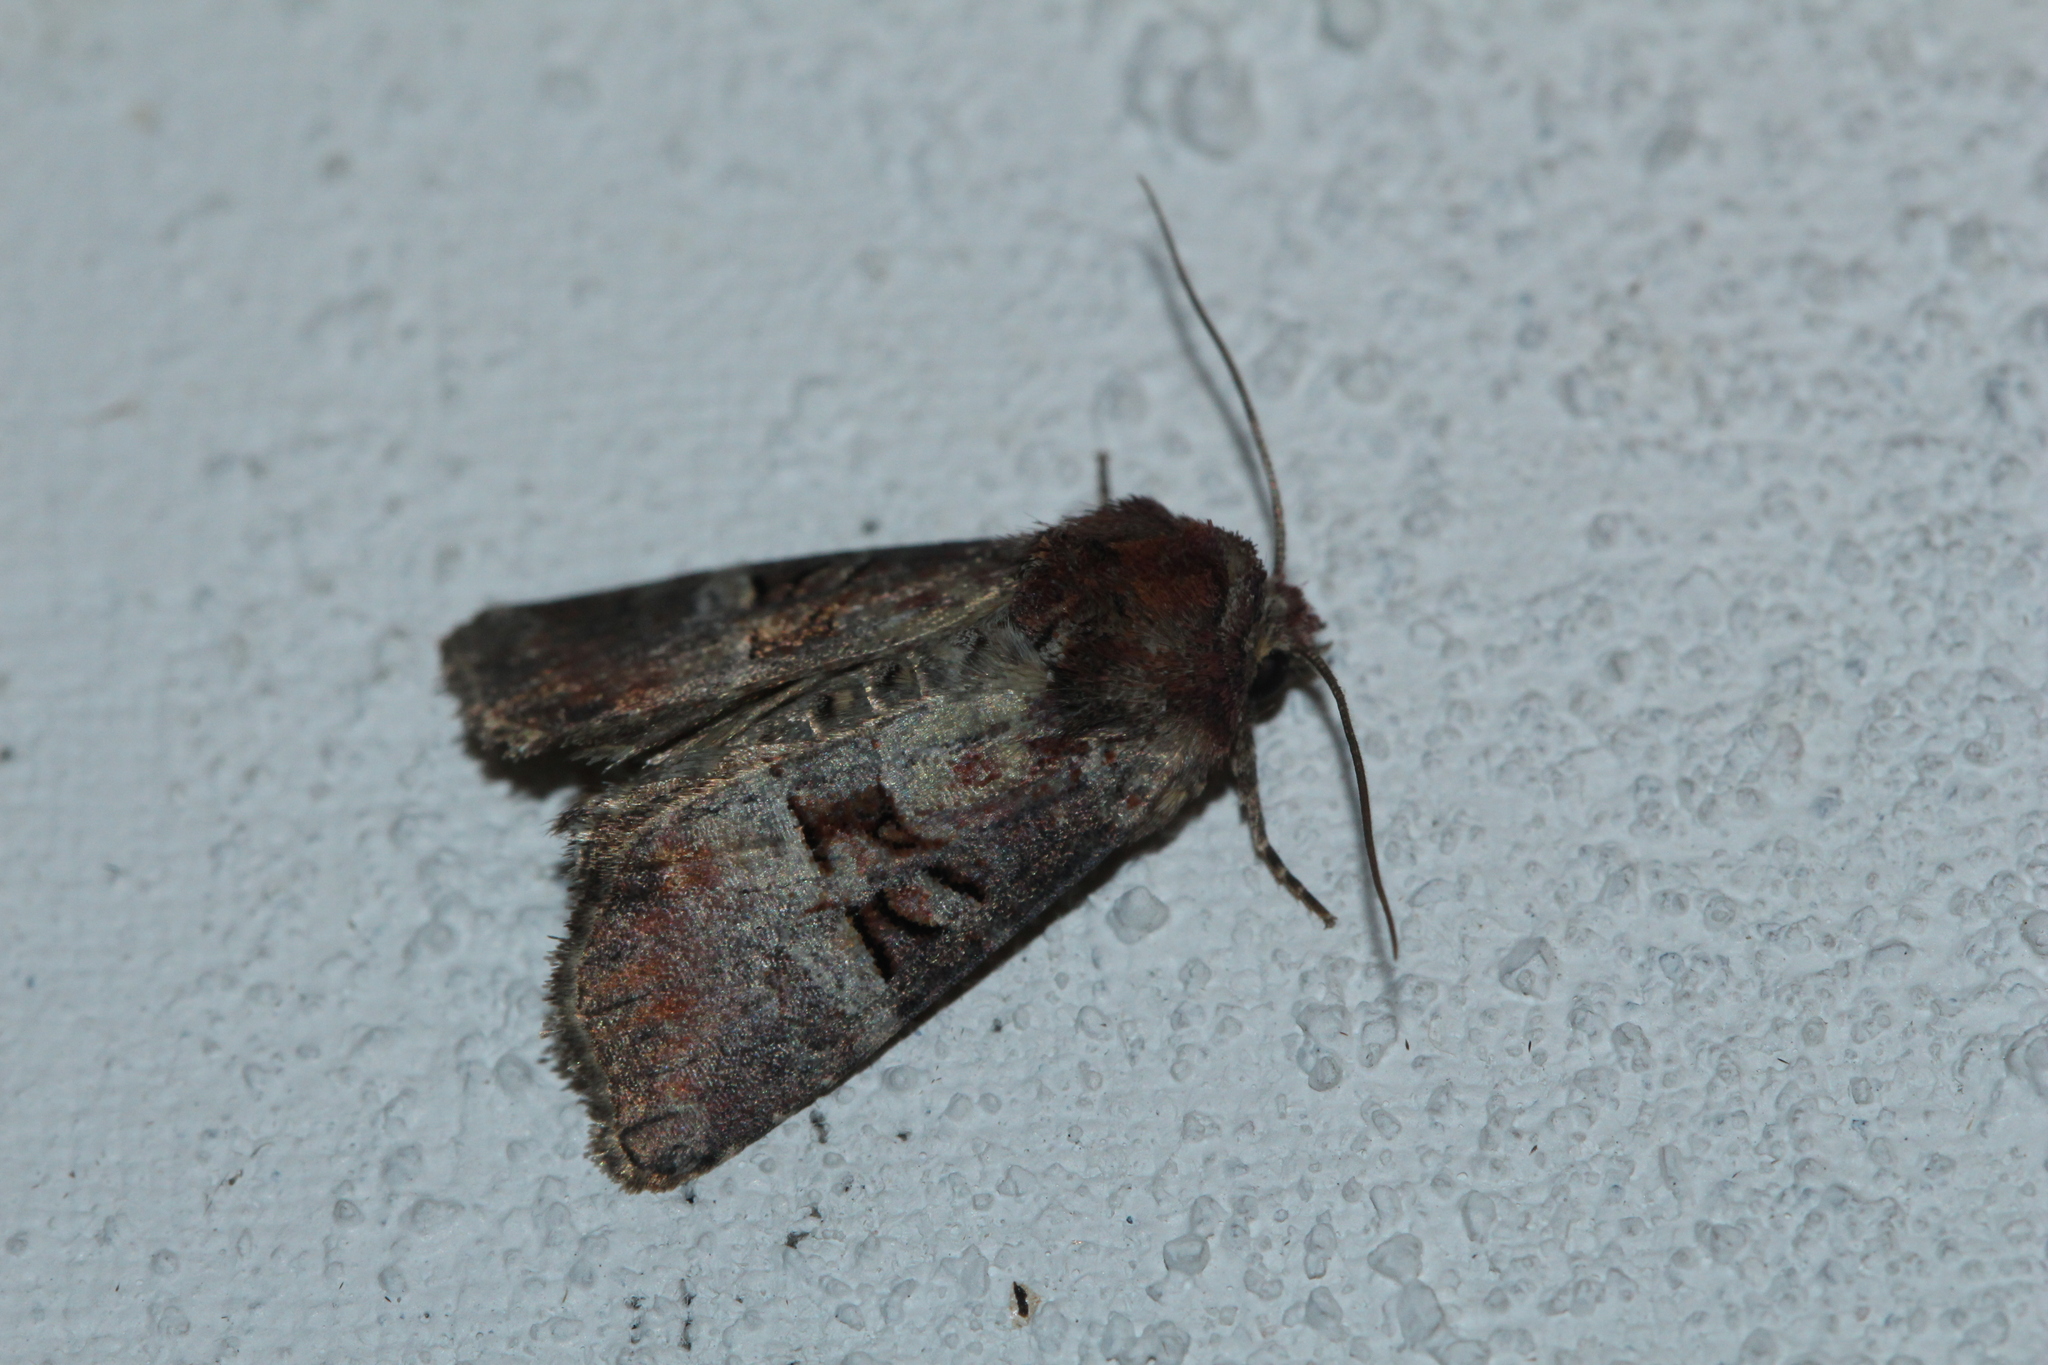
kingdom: Animalia
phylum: Arthropoda
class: Insecta
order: Lepidoptera
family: Noctuidae
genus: Litoligia
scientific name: Litoligia literosa
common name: Rosy minor
